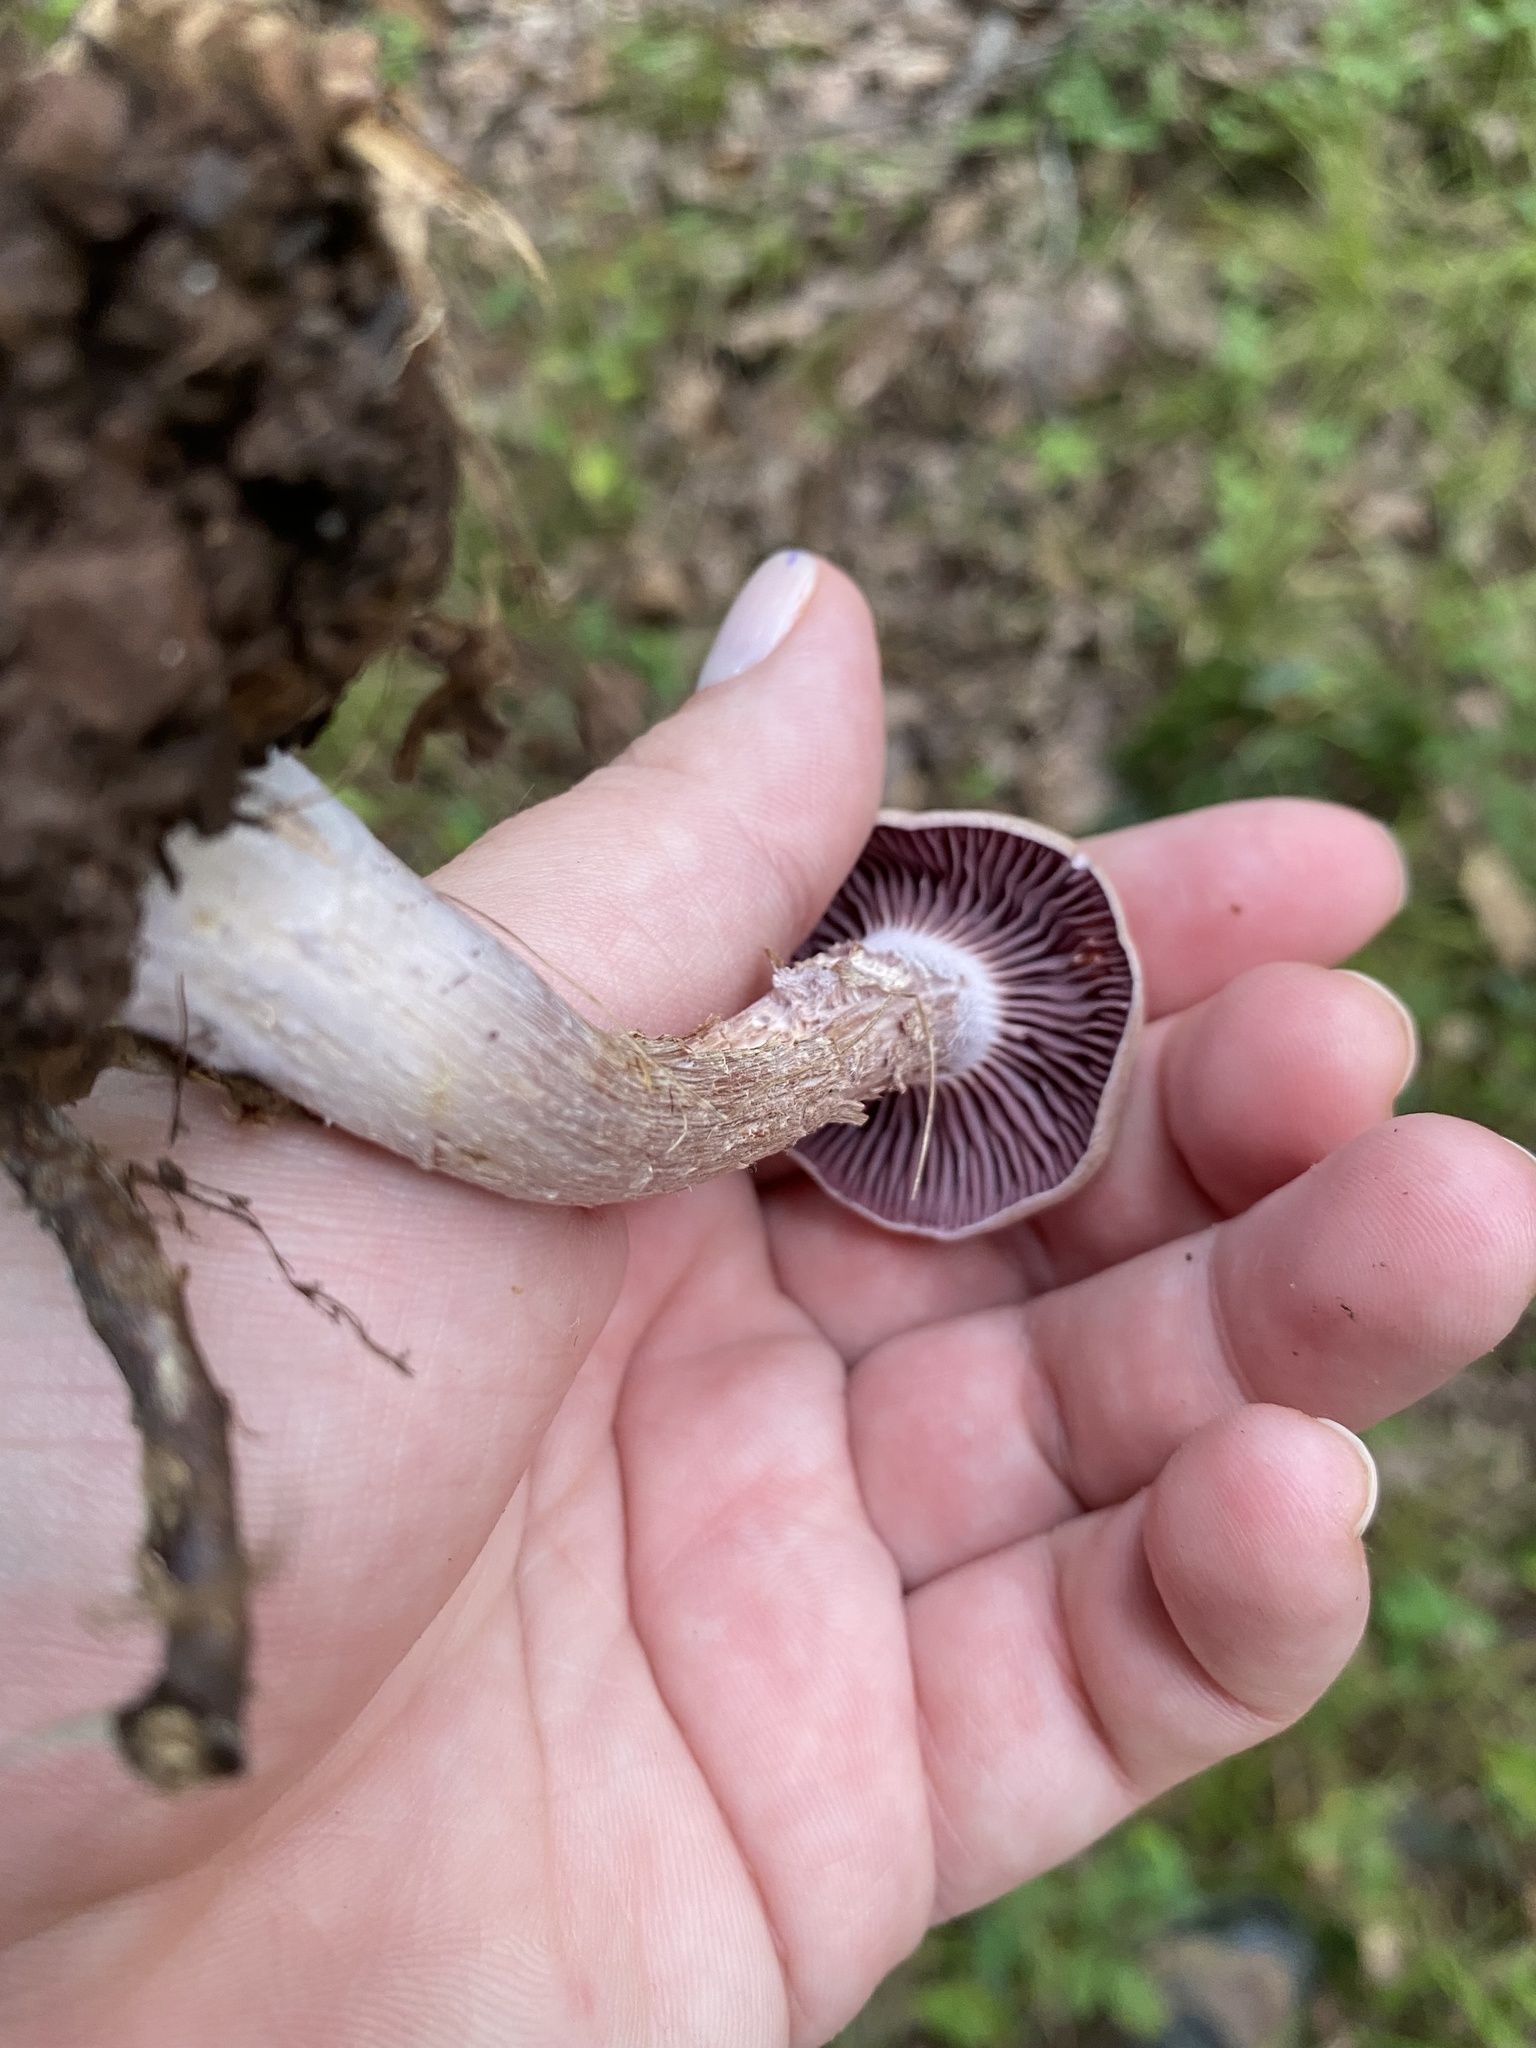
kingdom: Fungi
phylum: Basidiomycota
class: Agaricomycetes
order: Agaricales
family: Hydnangiaceae
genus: Laccaria
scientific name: Laccaria ochropurpurea
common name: Purple laccaria
